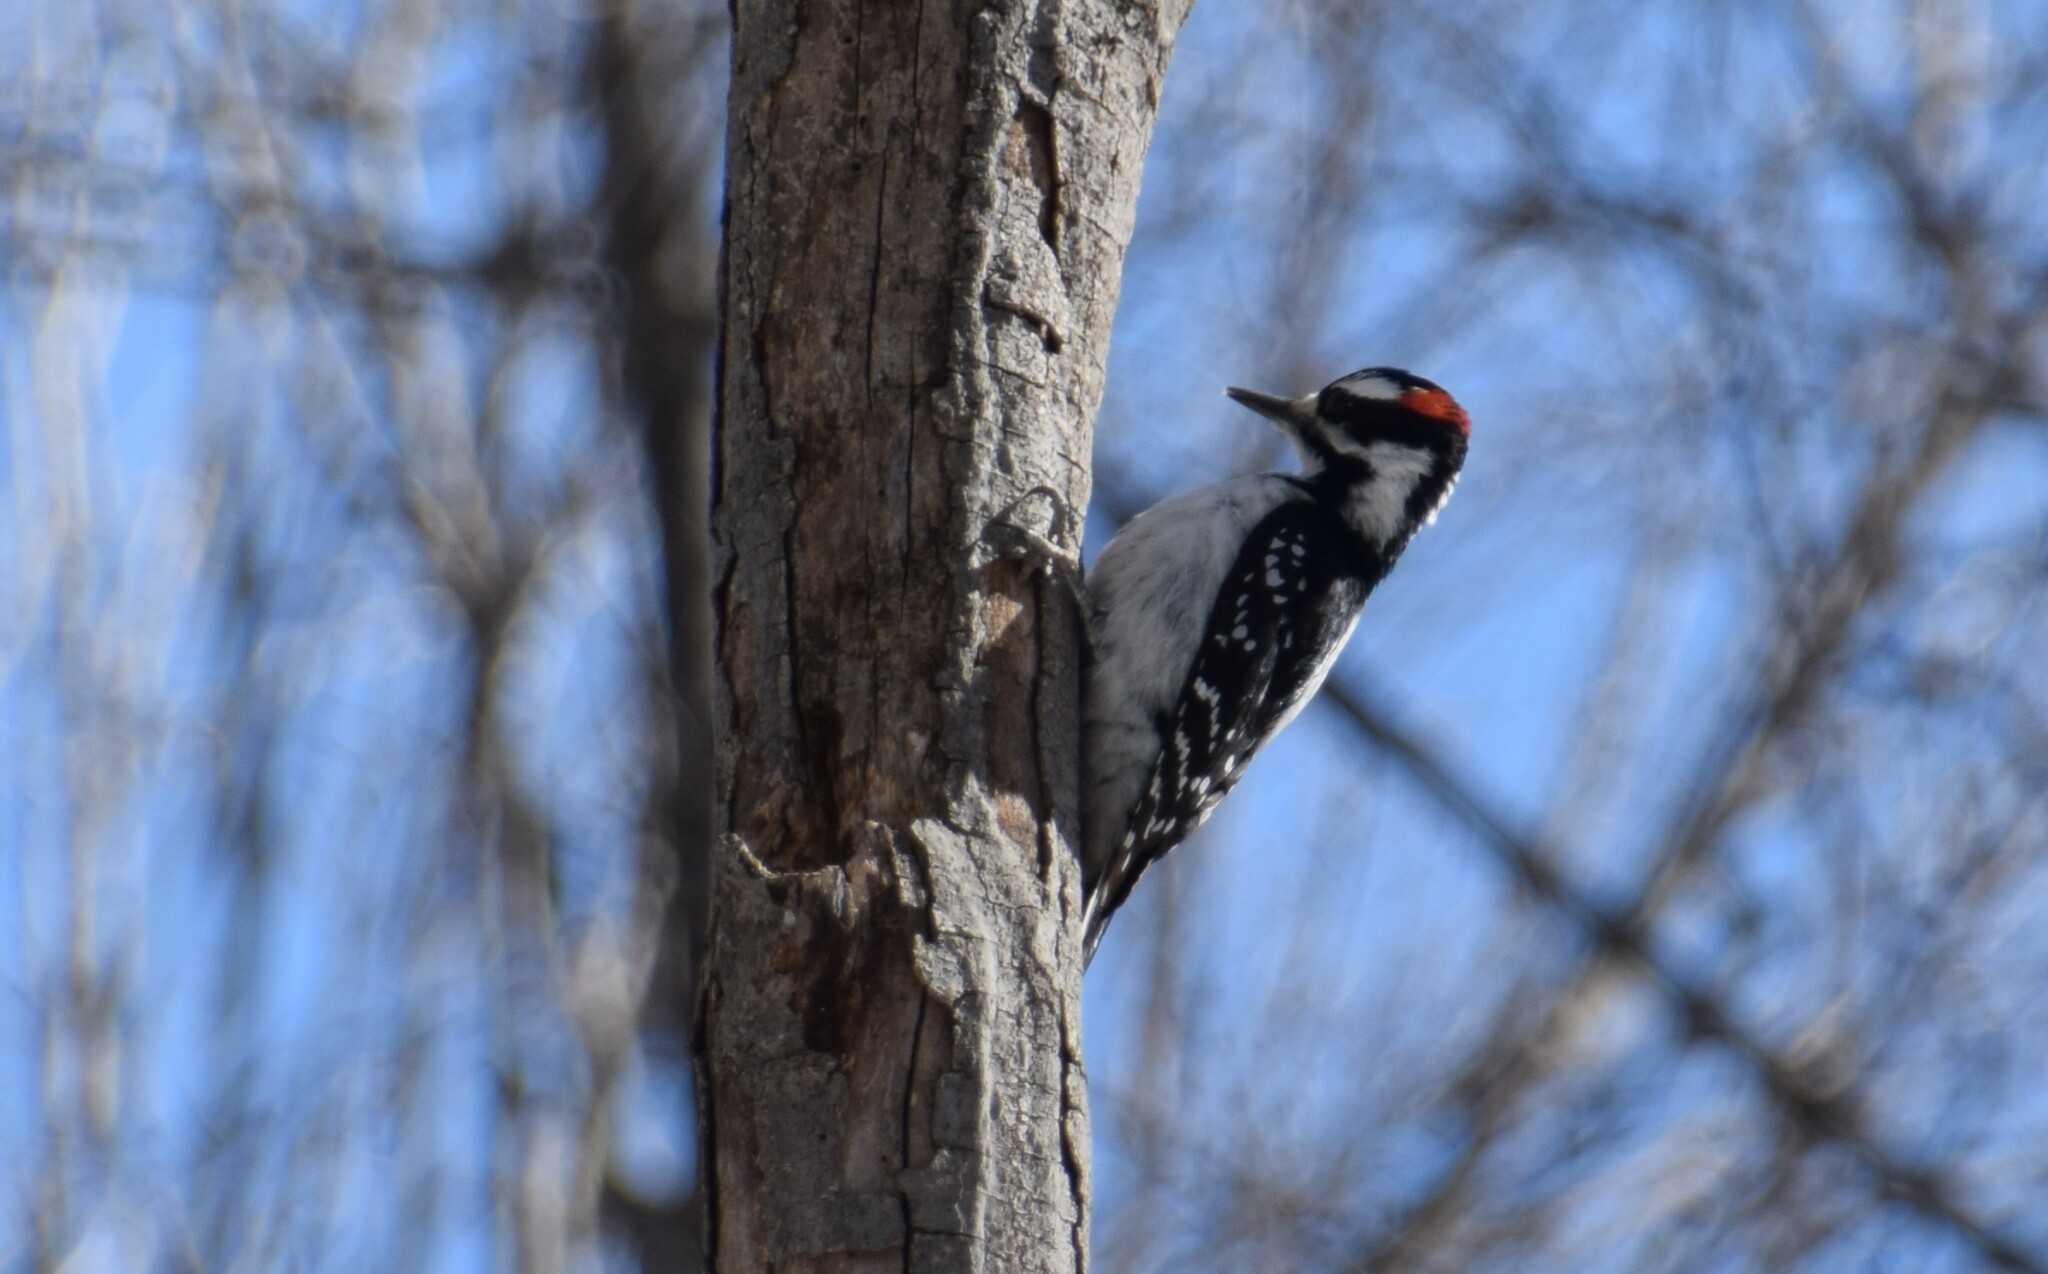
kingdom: Animalia
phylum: Chordata
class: Aves
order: Piciformes
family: Picidae
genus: Leuconotopicus
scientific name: Leuconotopicus villosus
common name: Hairy woodpecker
